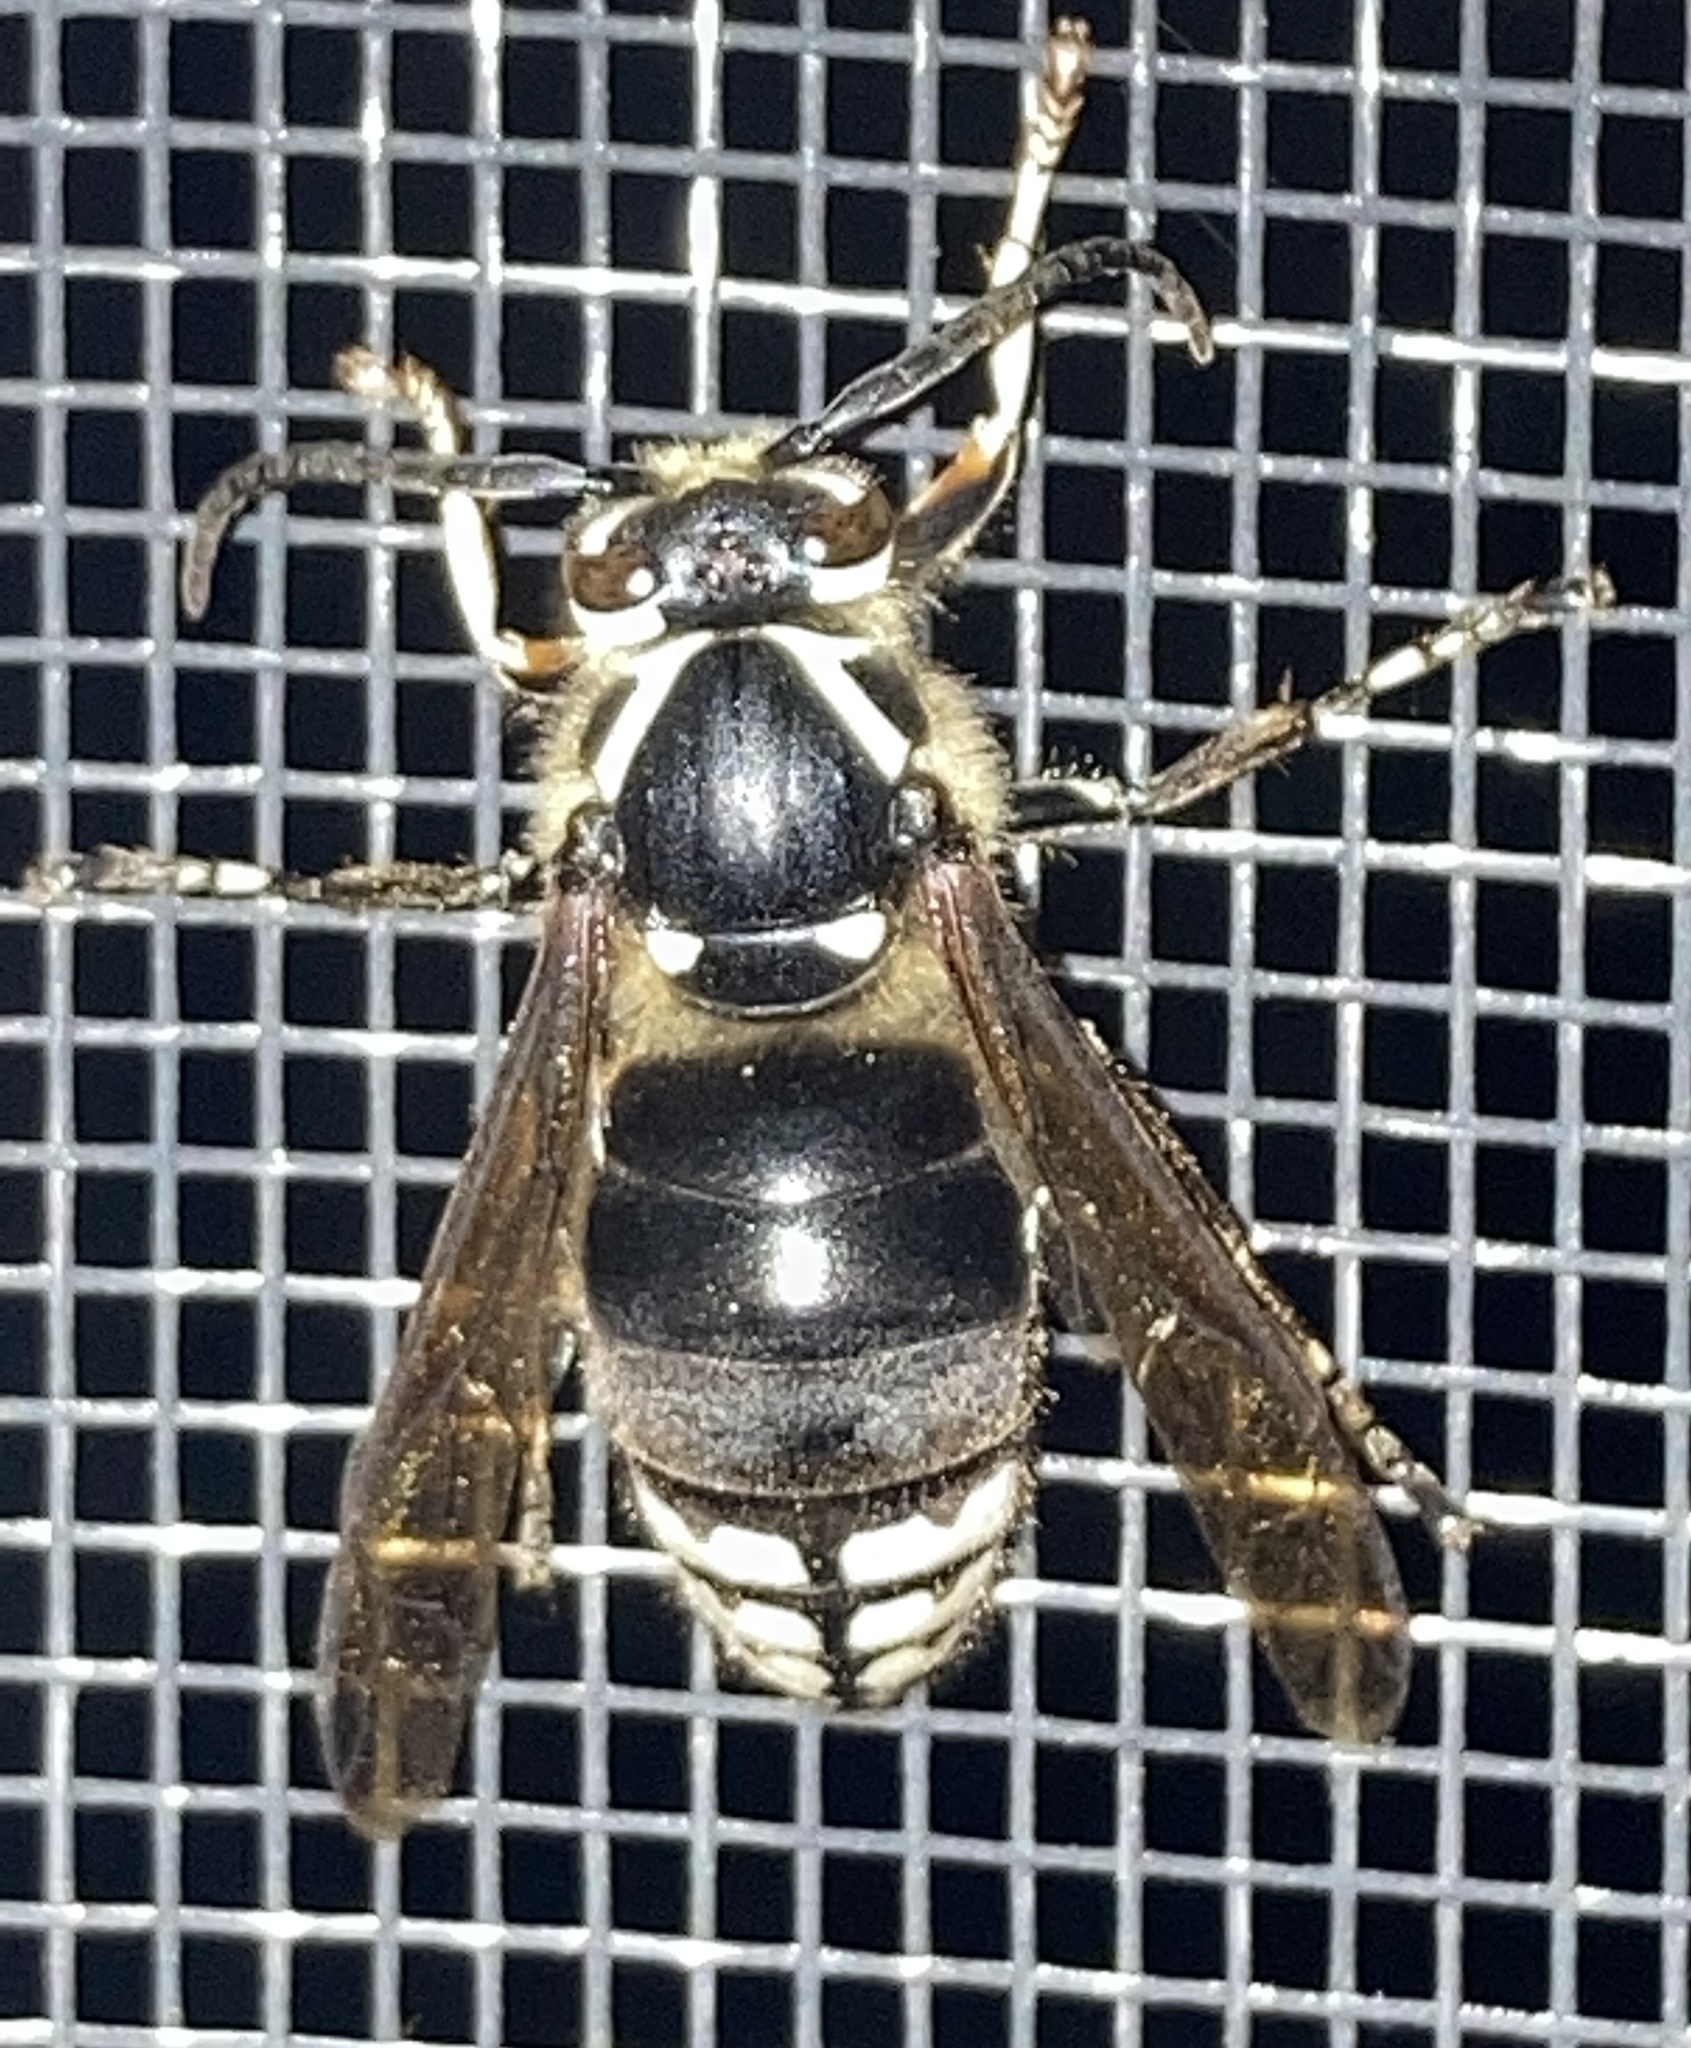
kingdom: Animalia
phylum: Arthropoda
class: Insecta
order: Hymenoptera
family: Vespidae
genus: Dolichovespula
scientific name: Dolichovespula maculata
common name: Bald-faced hornet
